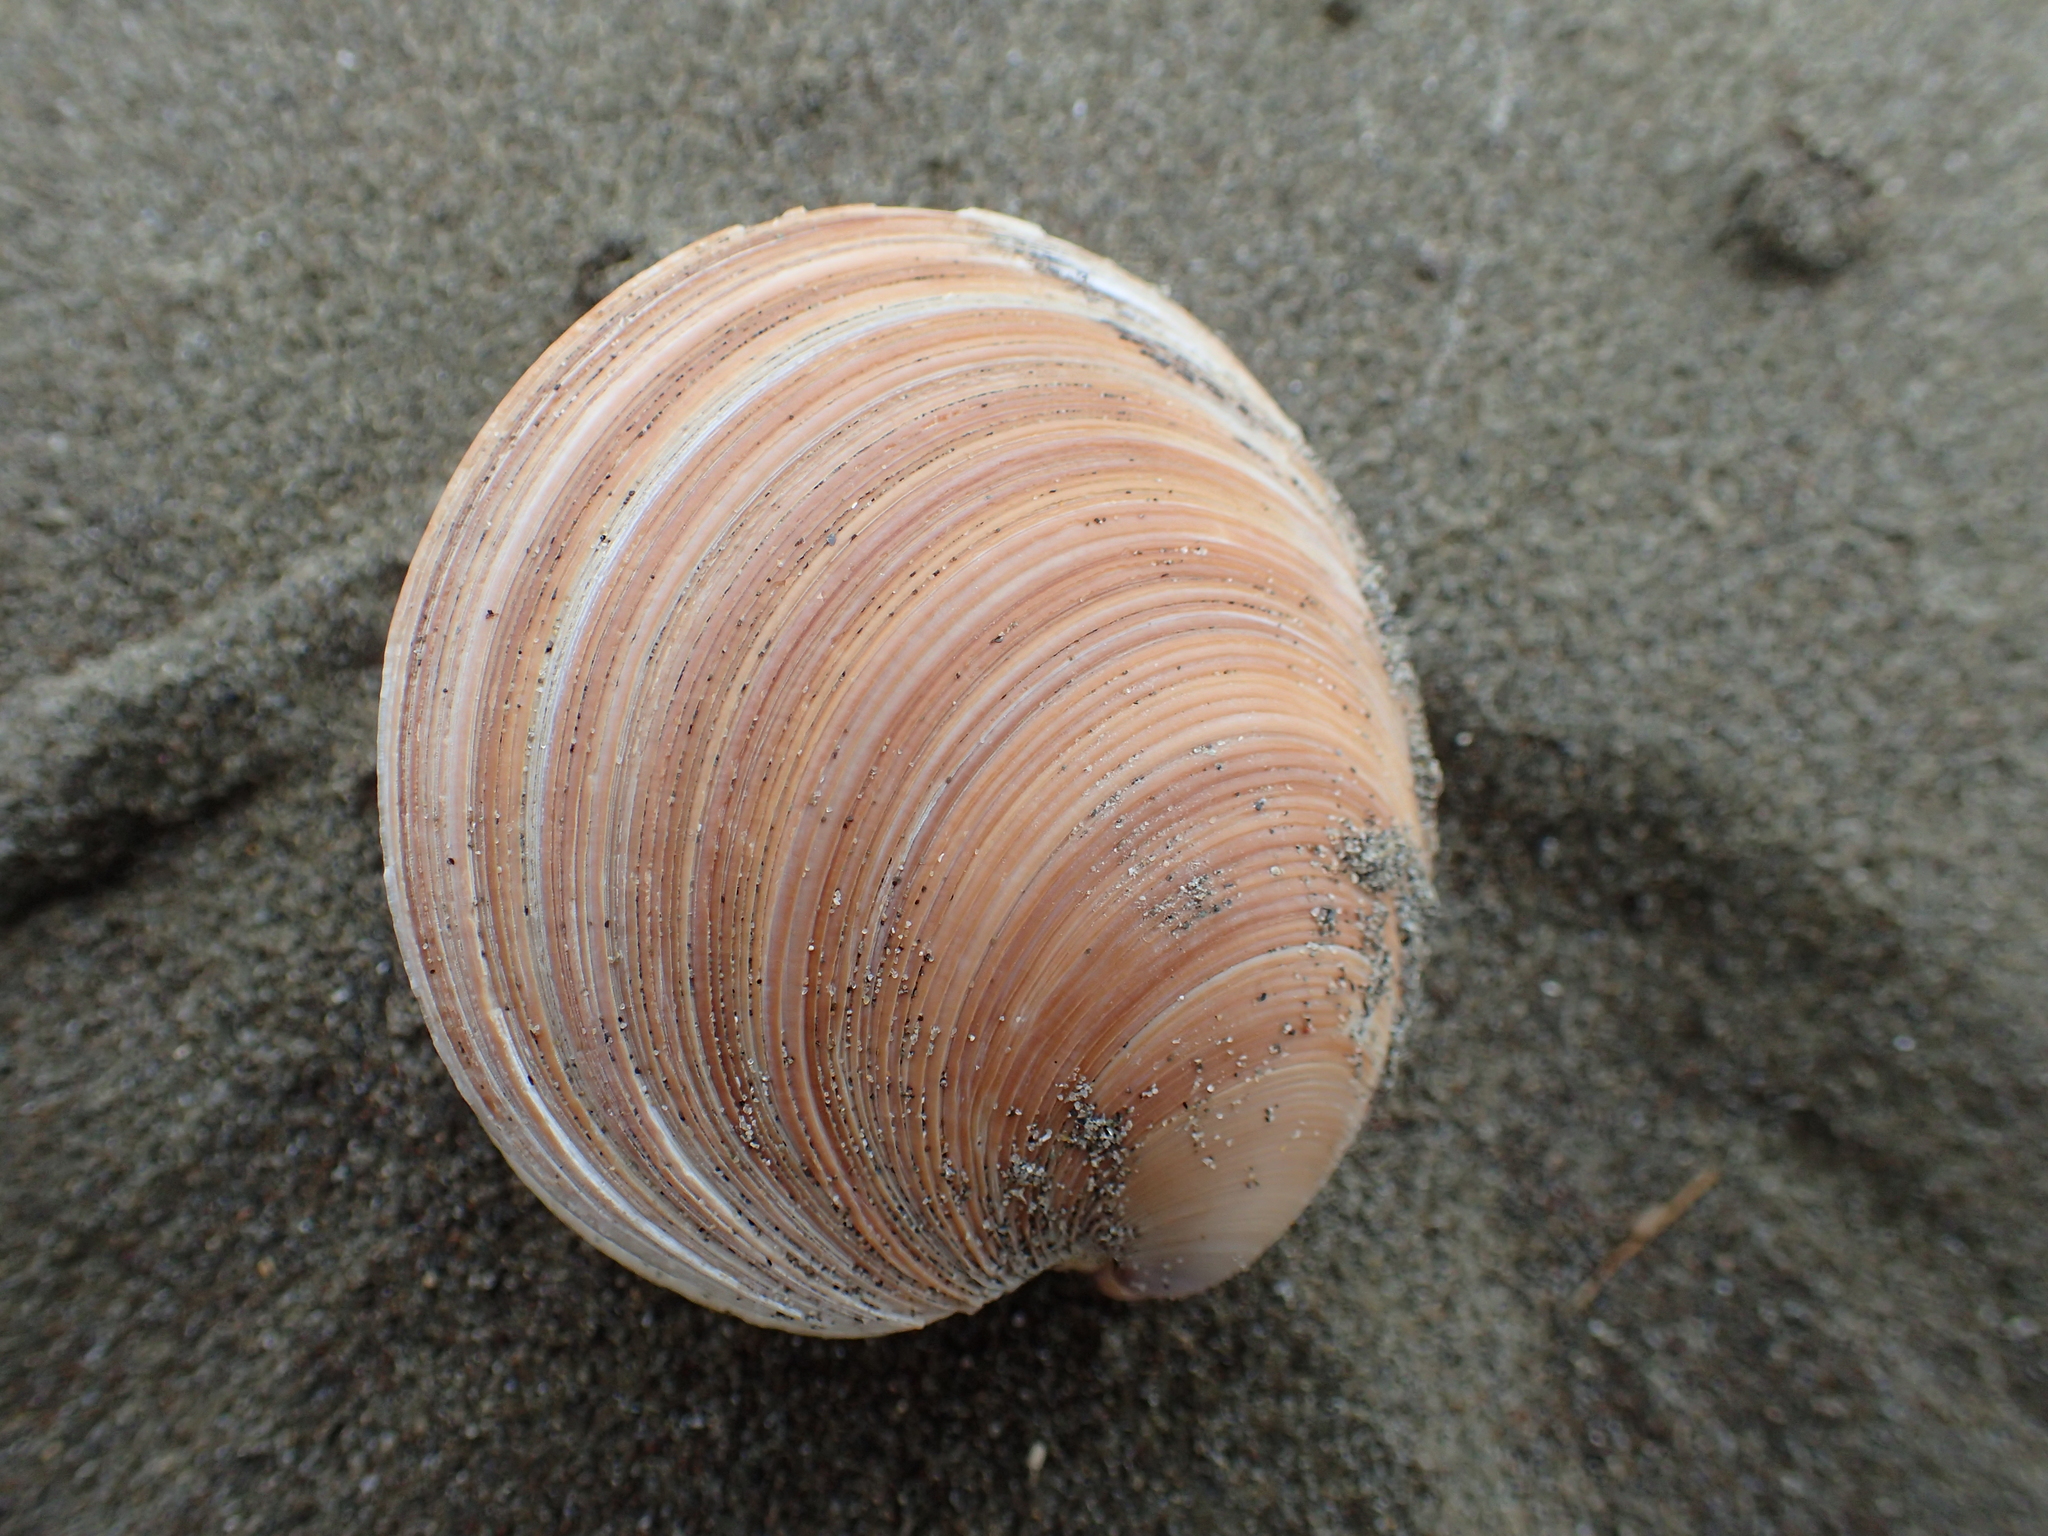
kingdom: Animalia
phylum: Mollusca
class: Bivalvia
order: Venerida
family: Veneridae
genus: Dosinia
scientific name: Dosinia anus
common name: Old-woman dosinia
